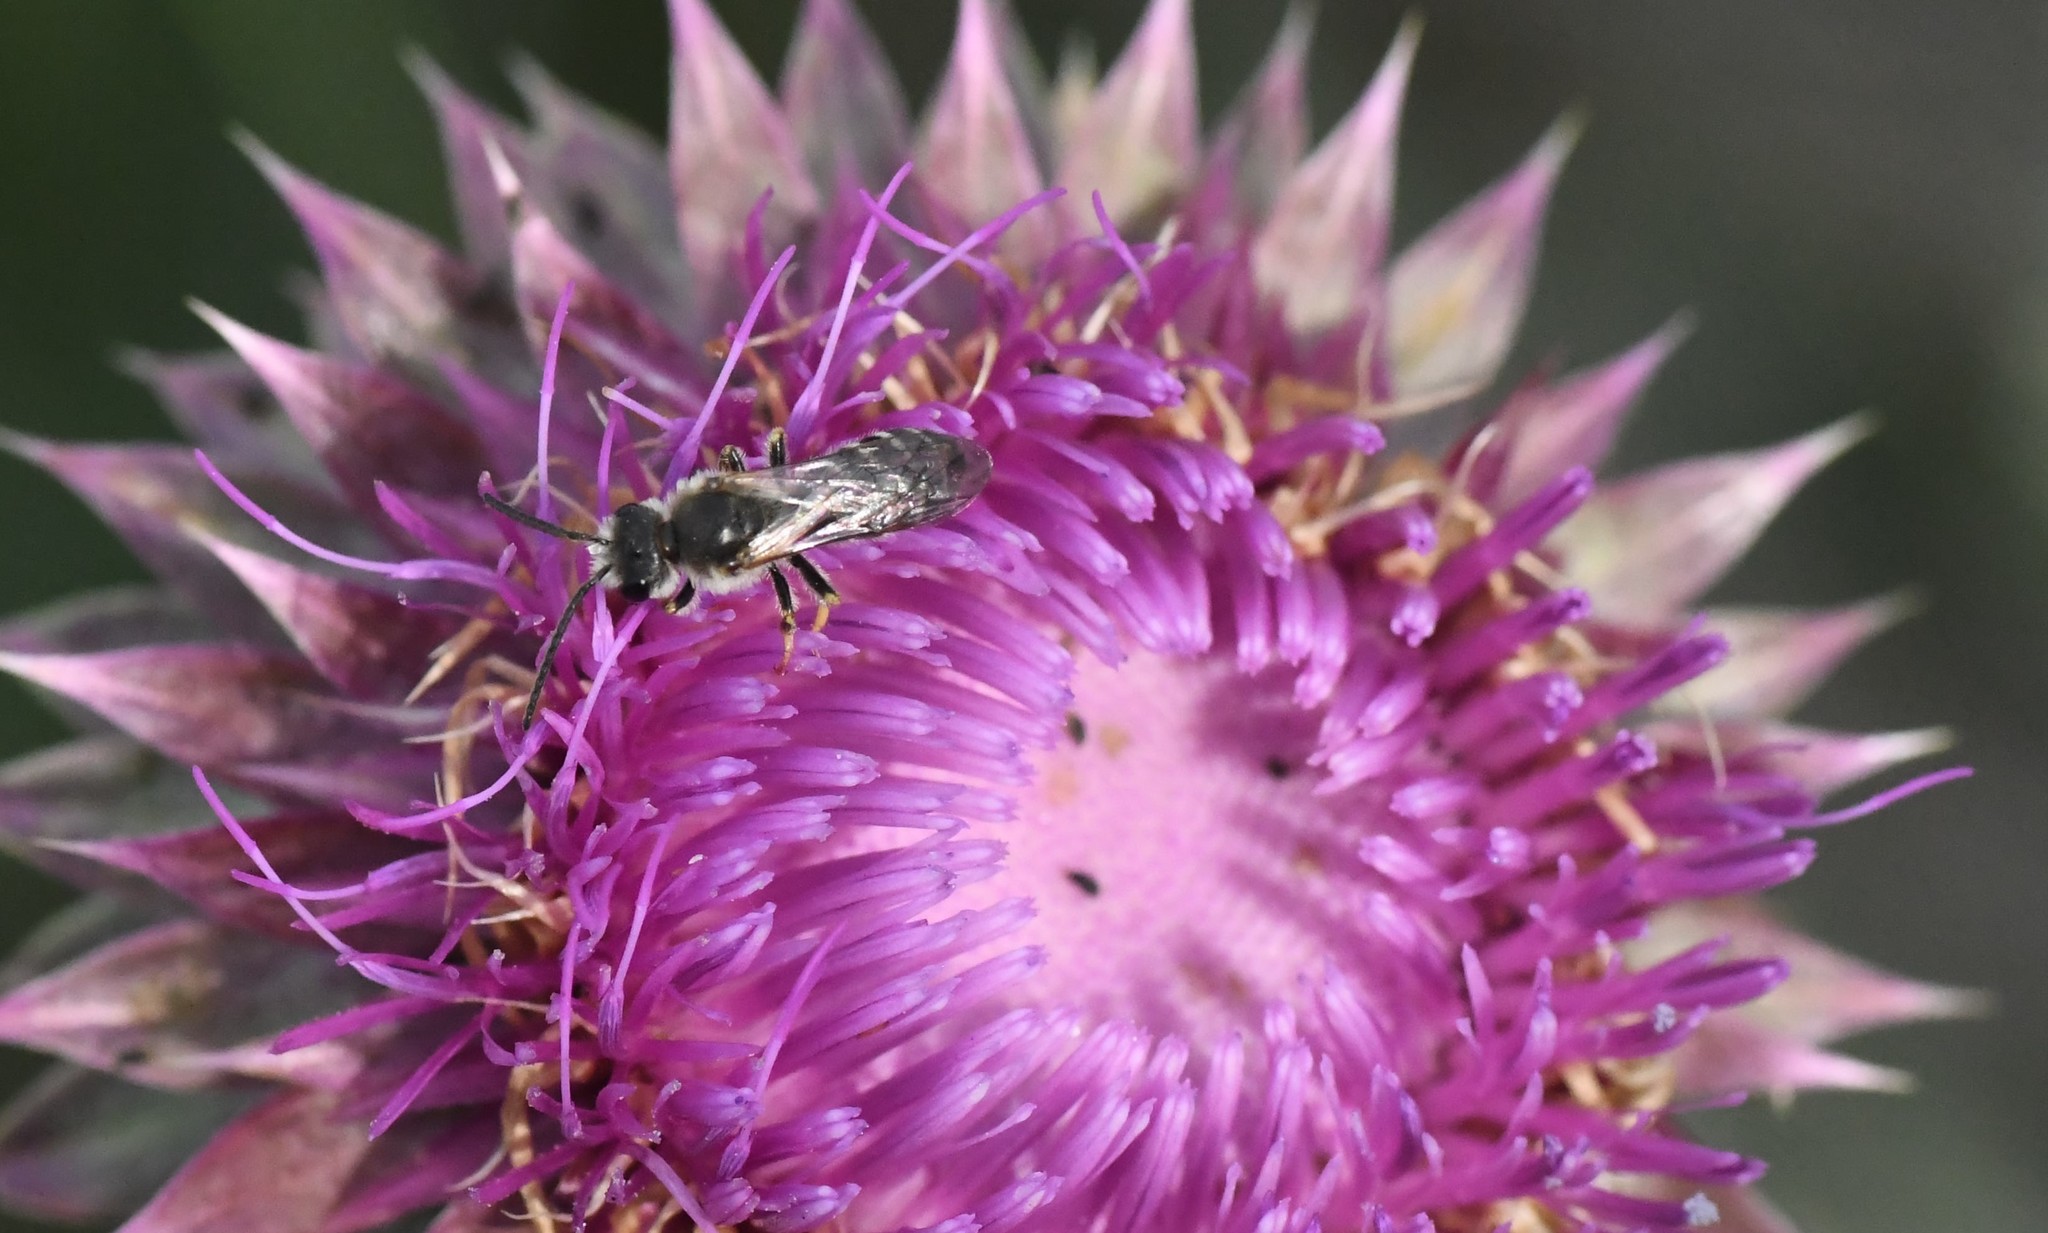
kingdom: Animalia
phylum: Arthropoda
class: Insecta
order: Hymenoptera
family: Halictidae
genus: Halictus
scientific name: Halictus rubicundus
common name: Orange-legged furrow bee
